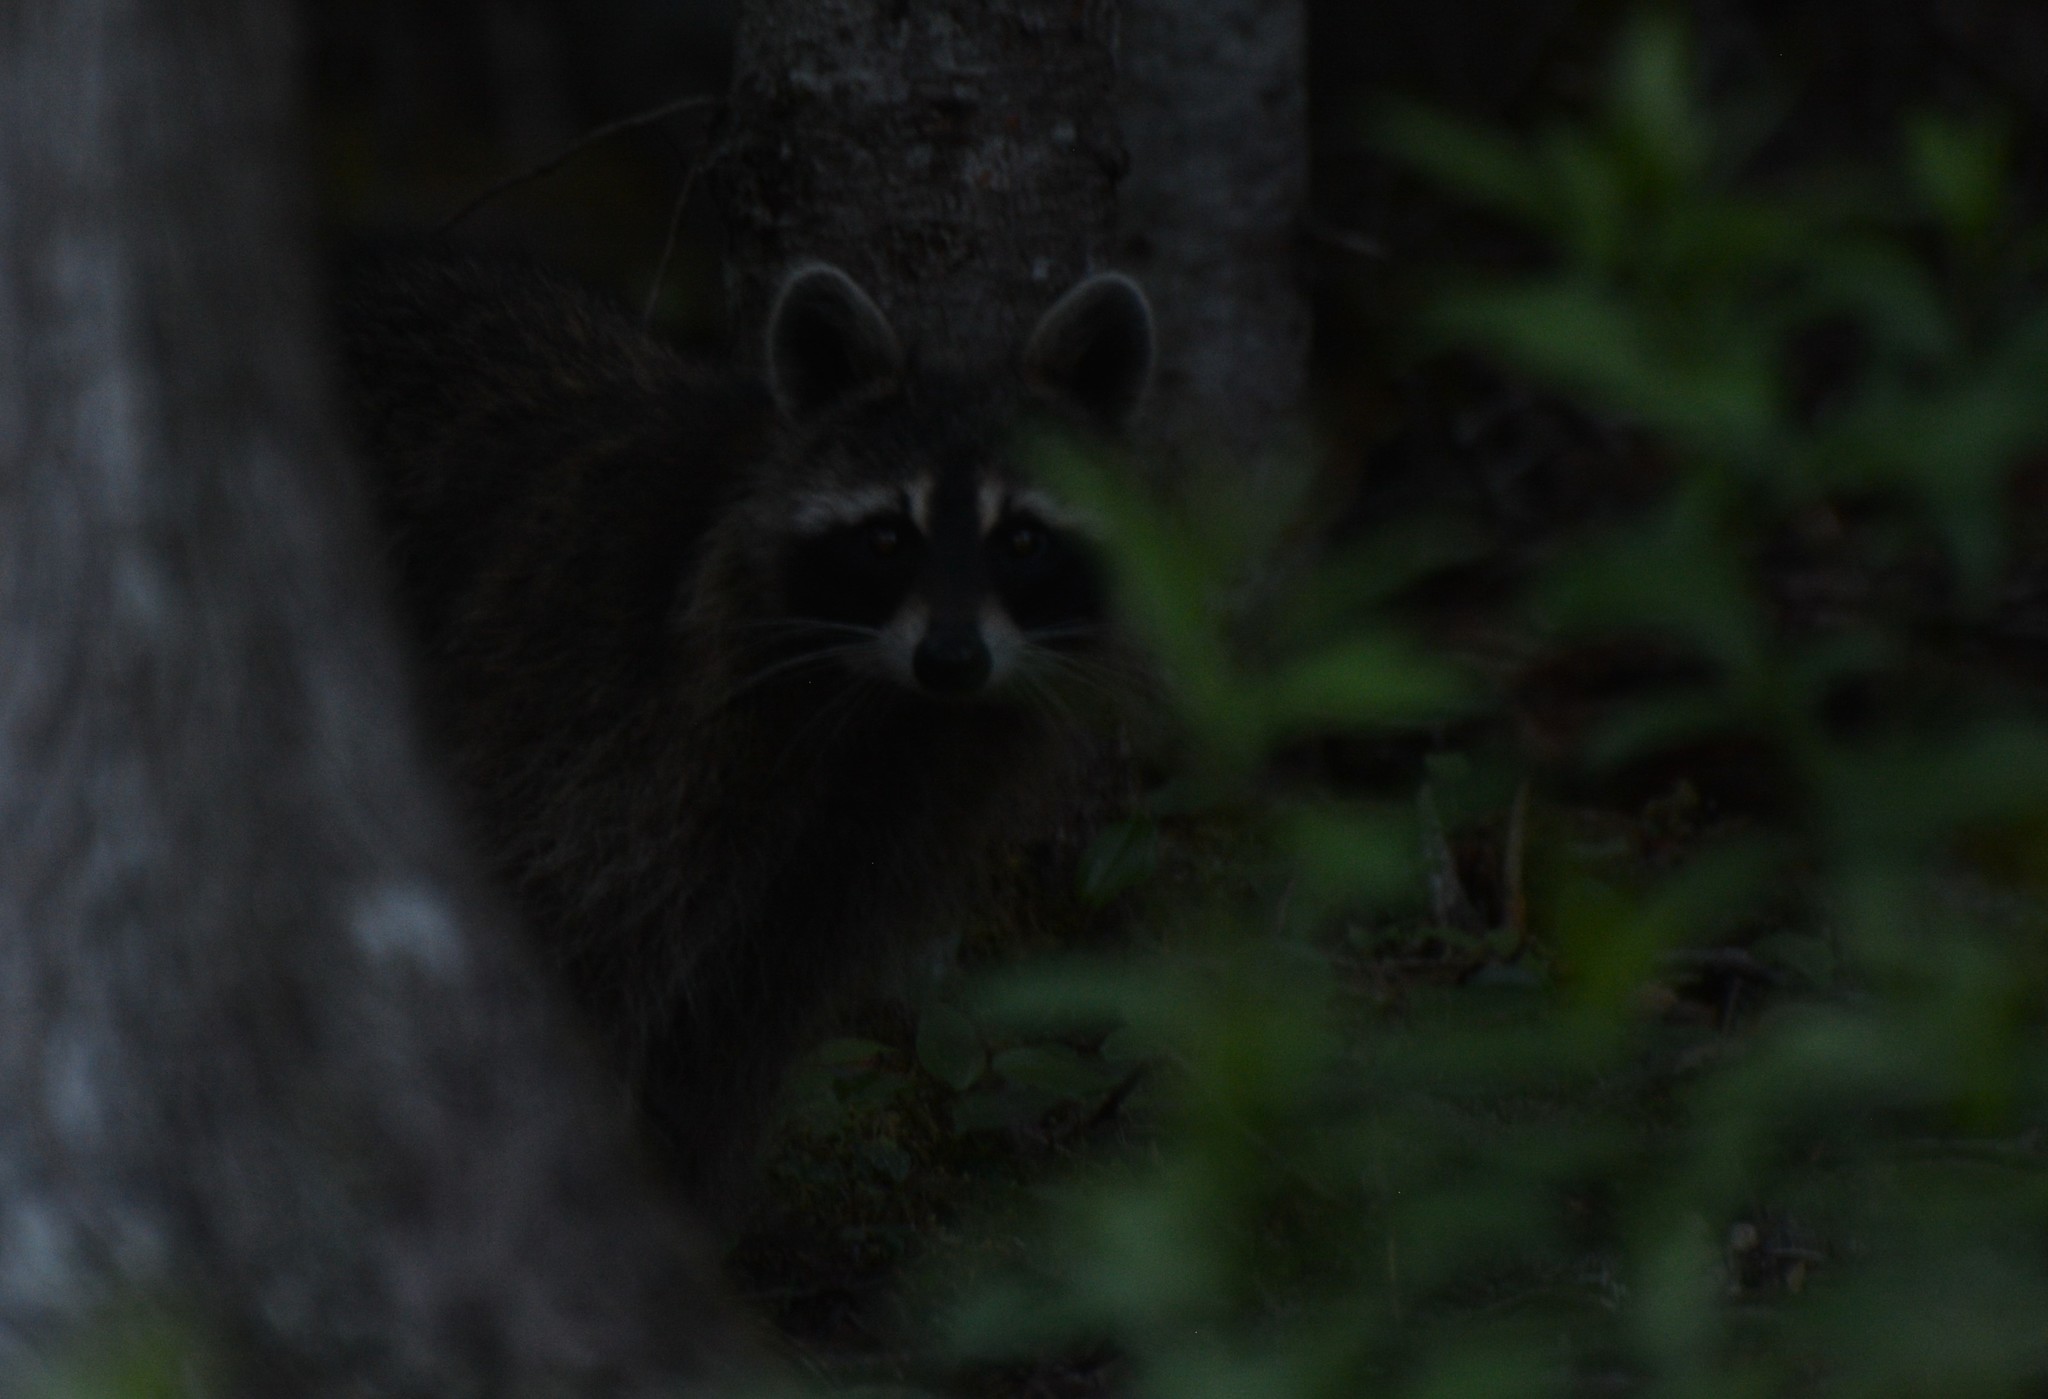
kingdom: Animalia
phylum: Chordata
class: Mammalia
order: Carnivora
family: Procyonidae
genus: Procyon
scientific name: Procyon lotor
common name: Raccoon
